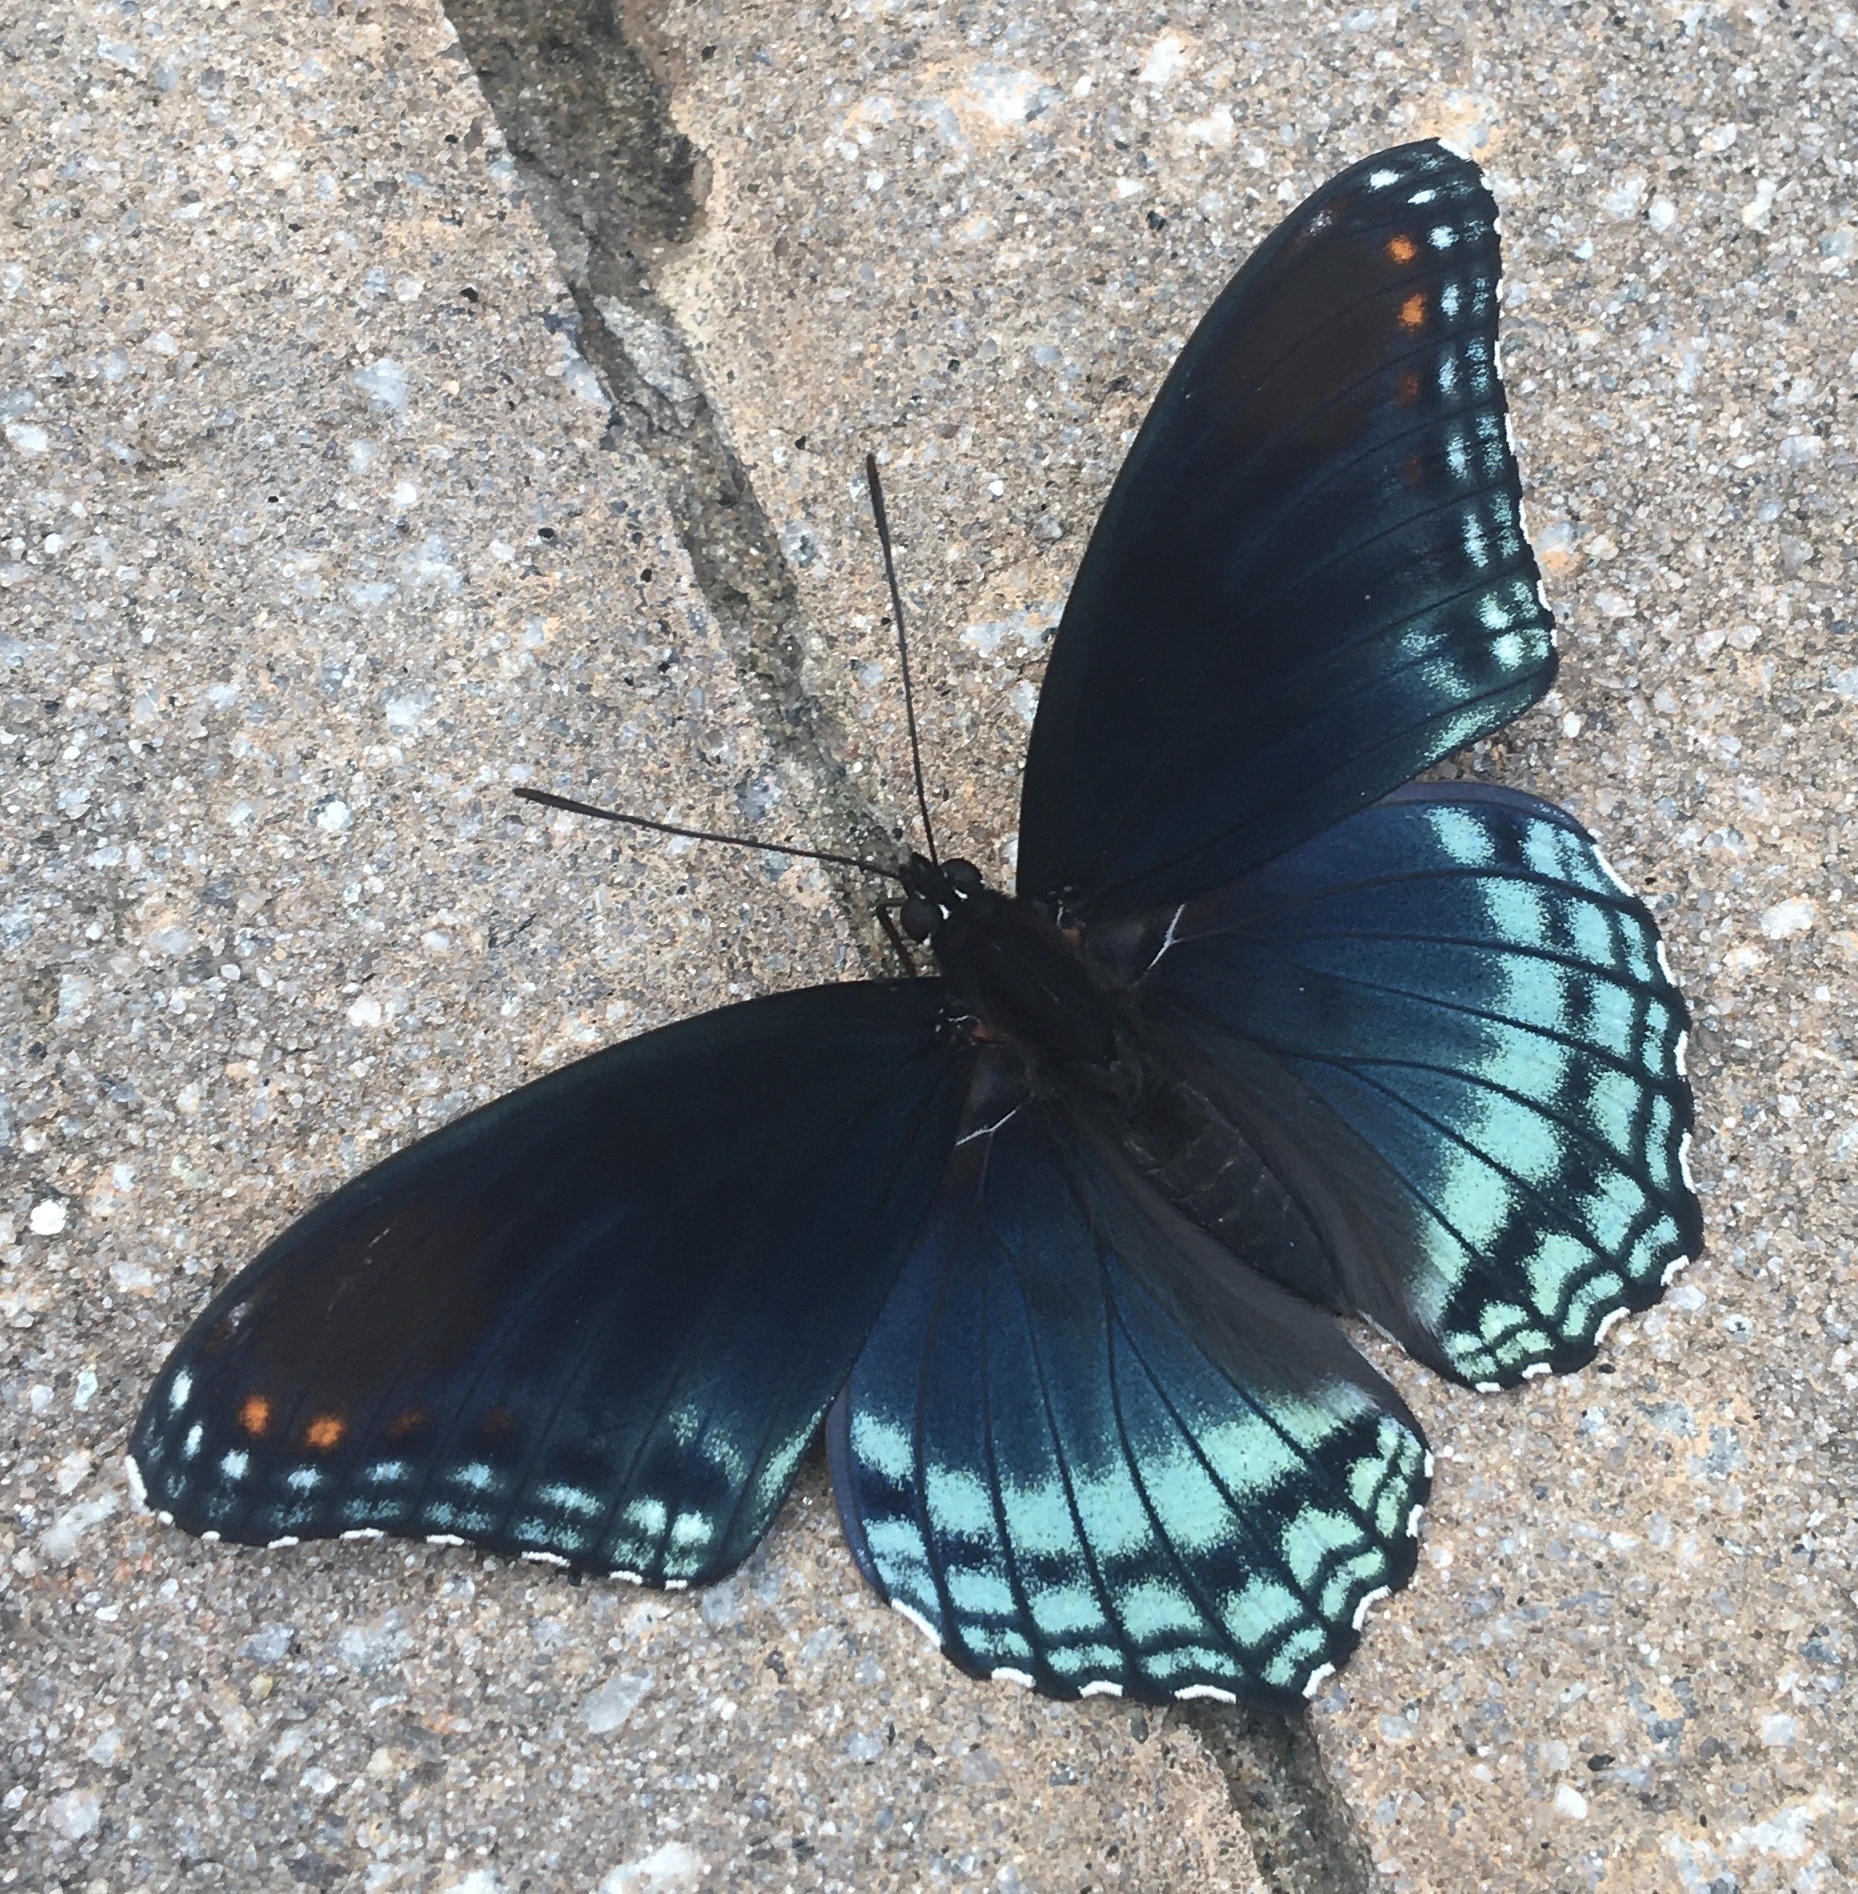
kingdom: Animalia
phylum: Arthropoda
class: Insecta
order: Lepidoptera
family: Nymphalidae
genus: Limenitis
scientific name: Limenitis astyanax
